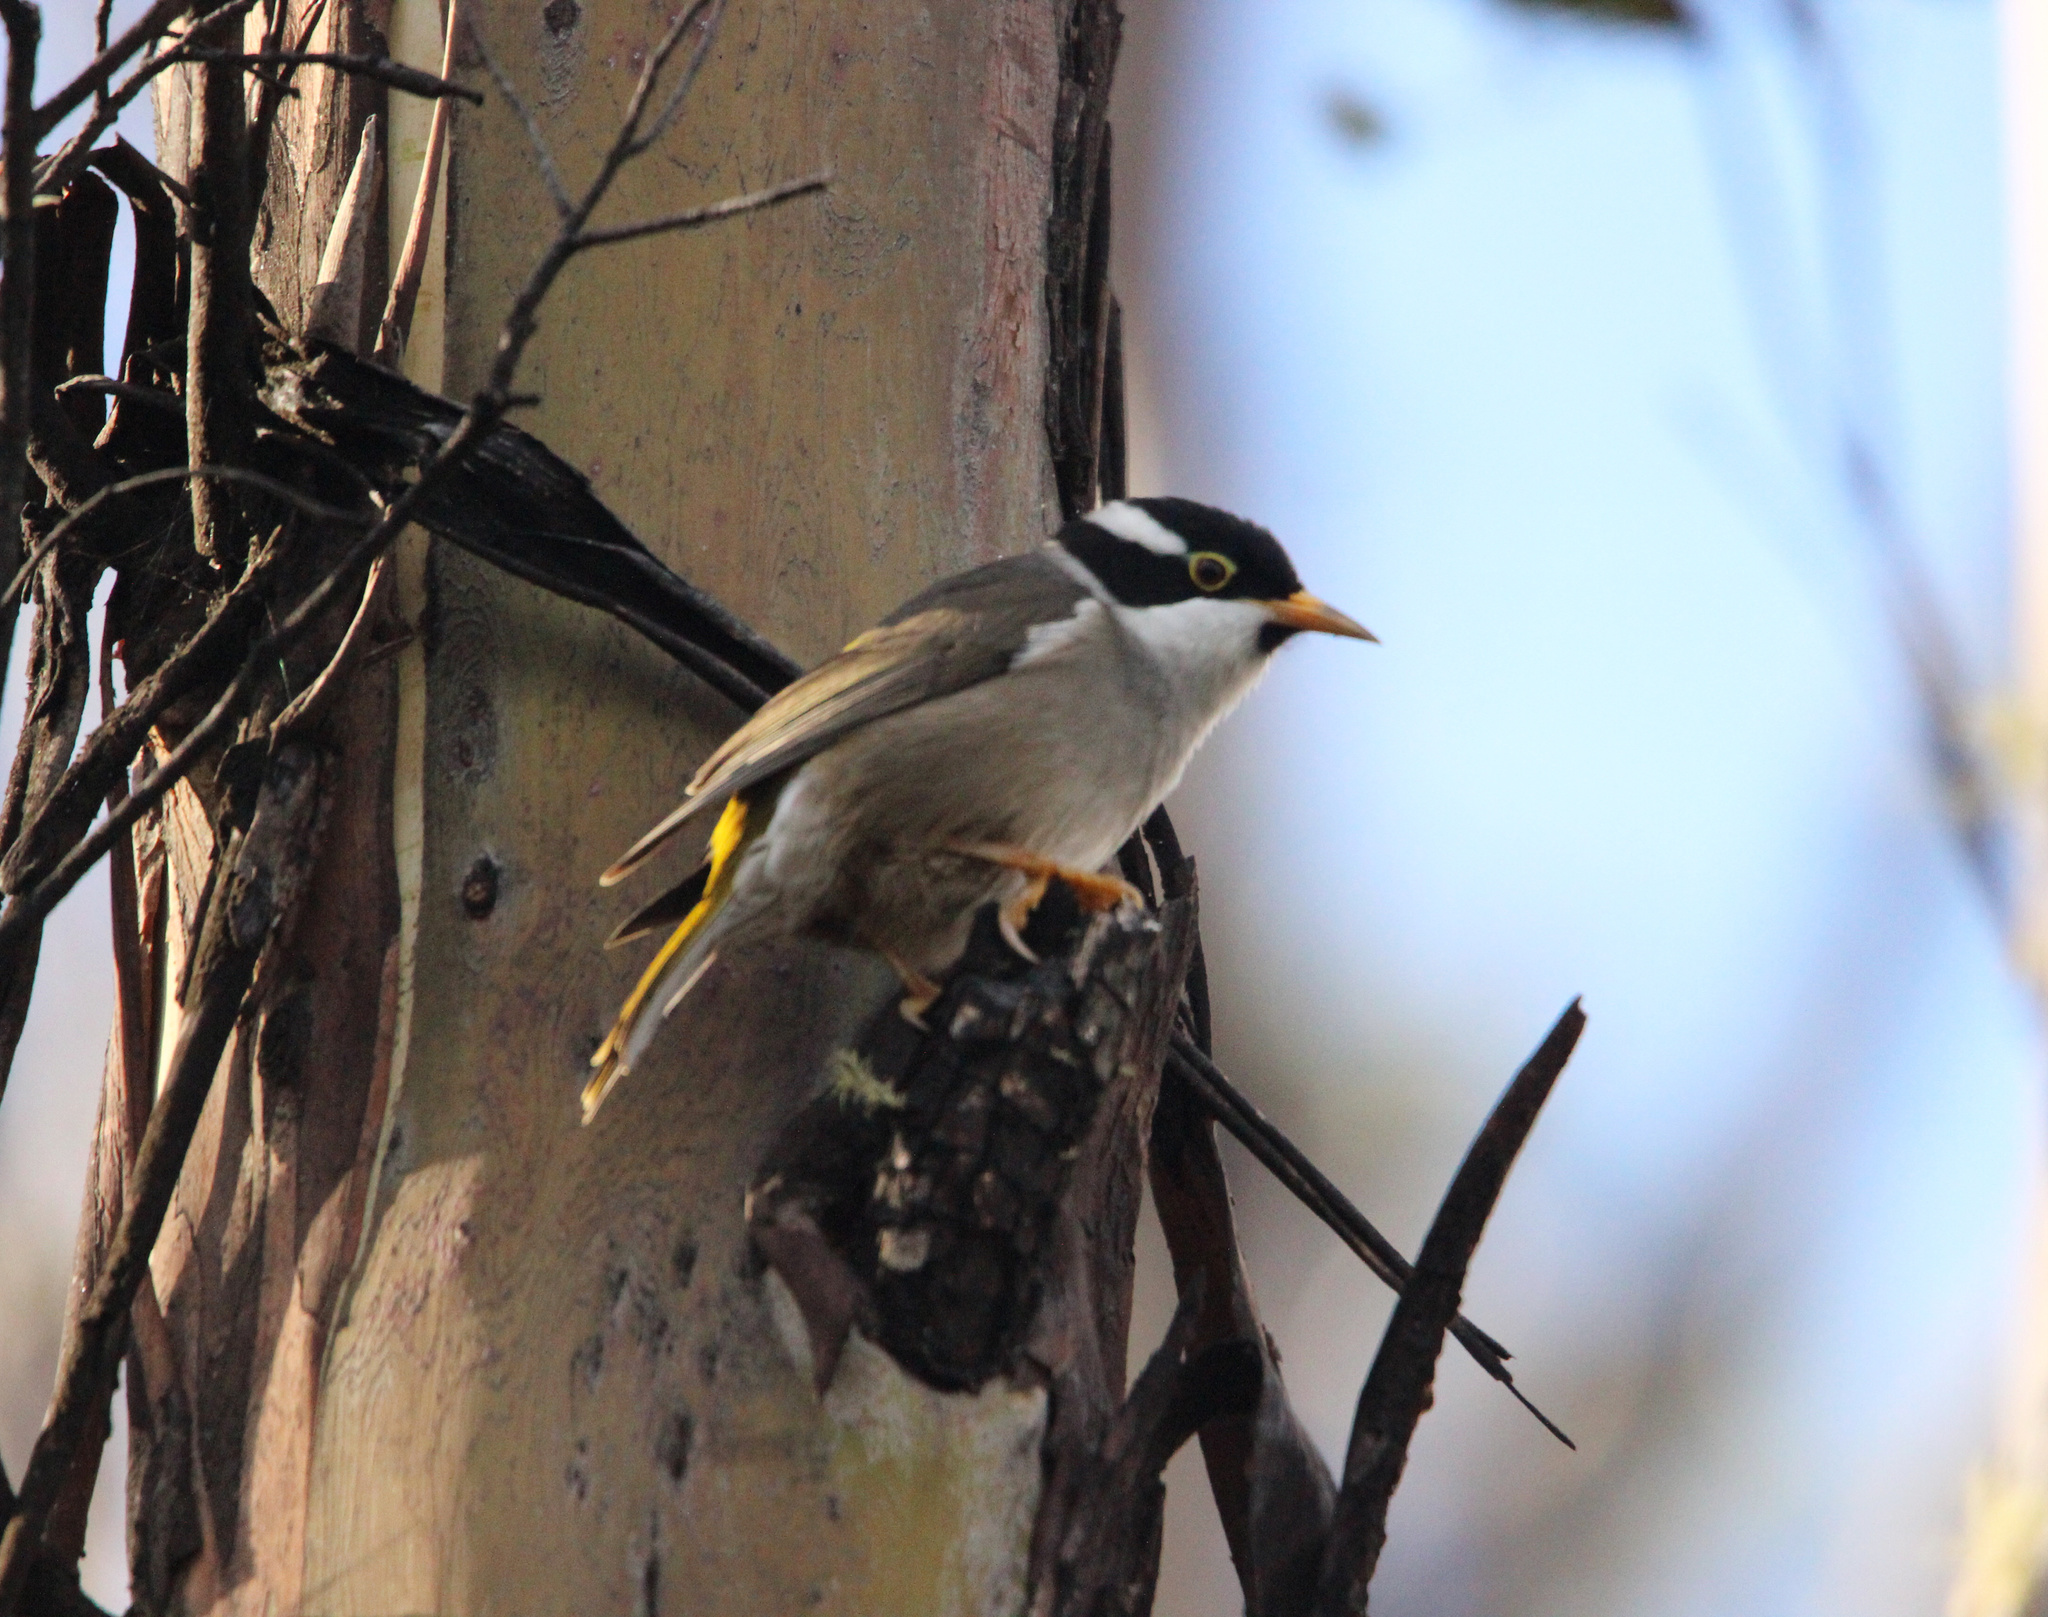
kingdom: Animalia
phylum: Chordata
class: Aves
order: Passeriformes
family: Meliphagidae
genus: Melithreptus
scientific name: Melithreptus validirostris
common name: Strong-billed honeyeater
